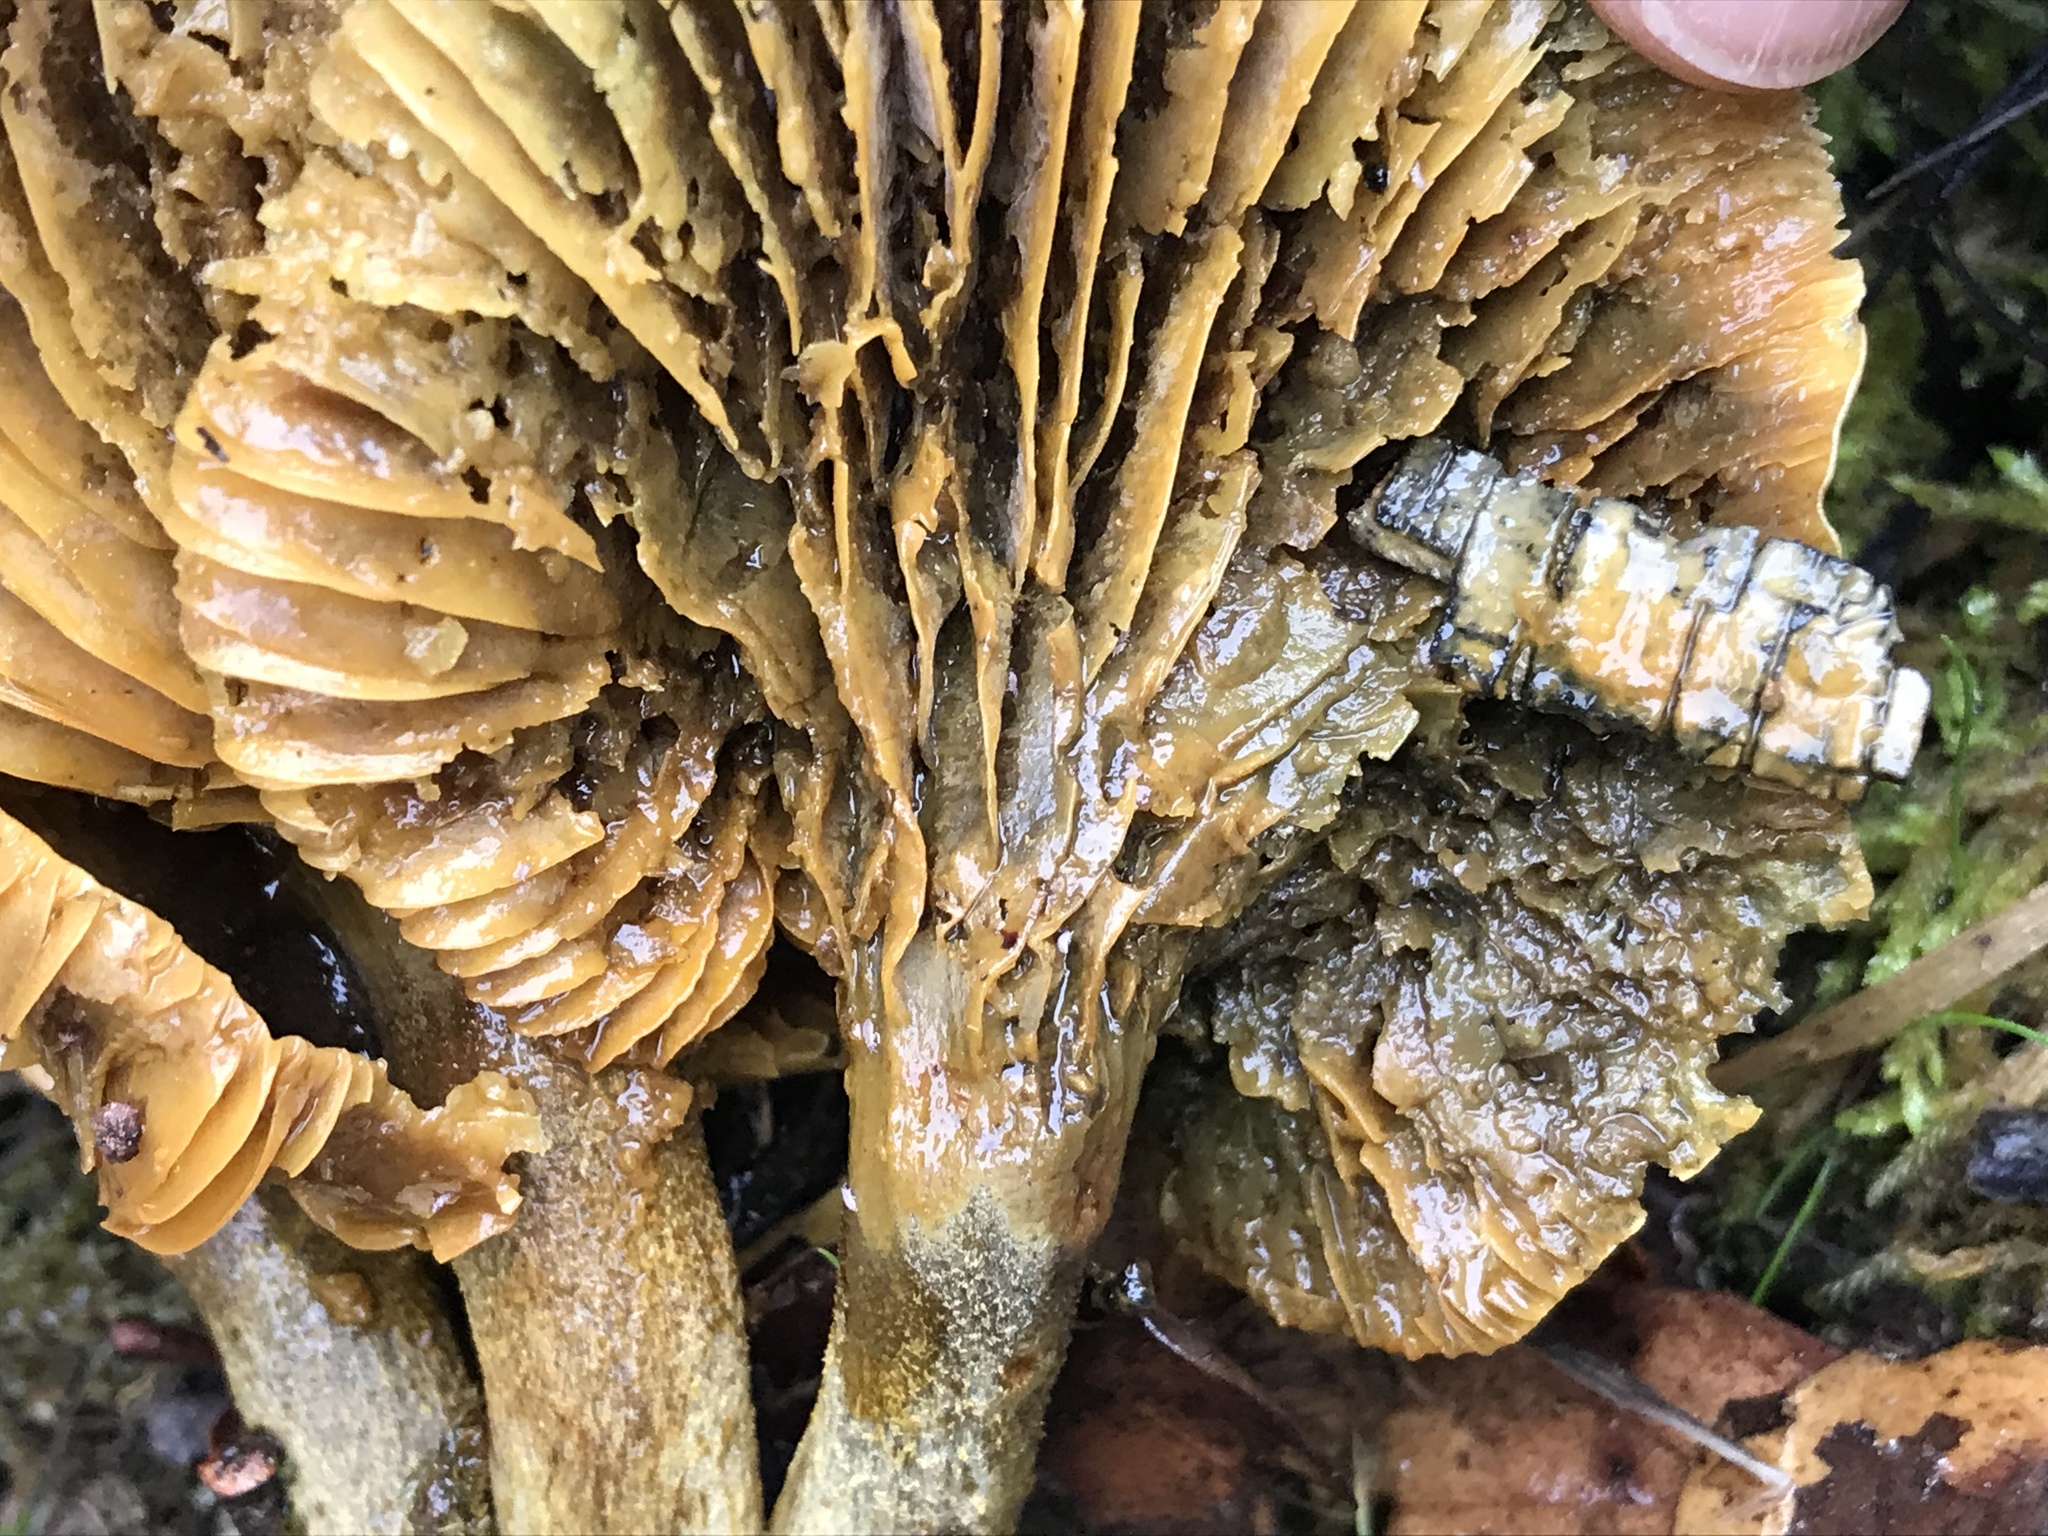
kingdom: Fungi
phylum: Basidiomycota
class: Agaricomycetes
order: Agaricales
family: Omphalotaceae
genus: Omphalotus
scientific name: Omphalotus olivascens
